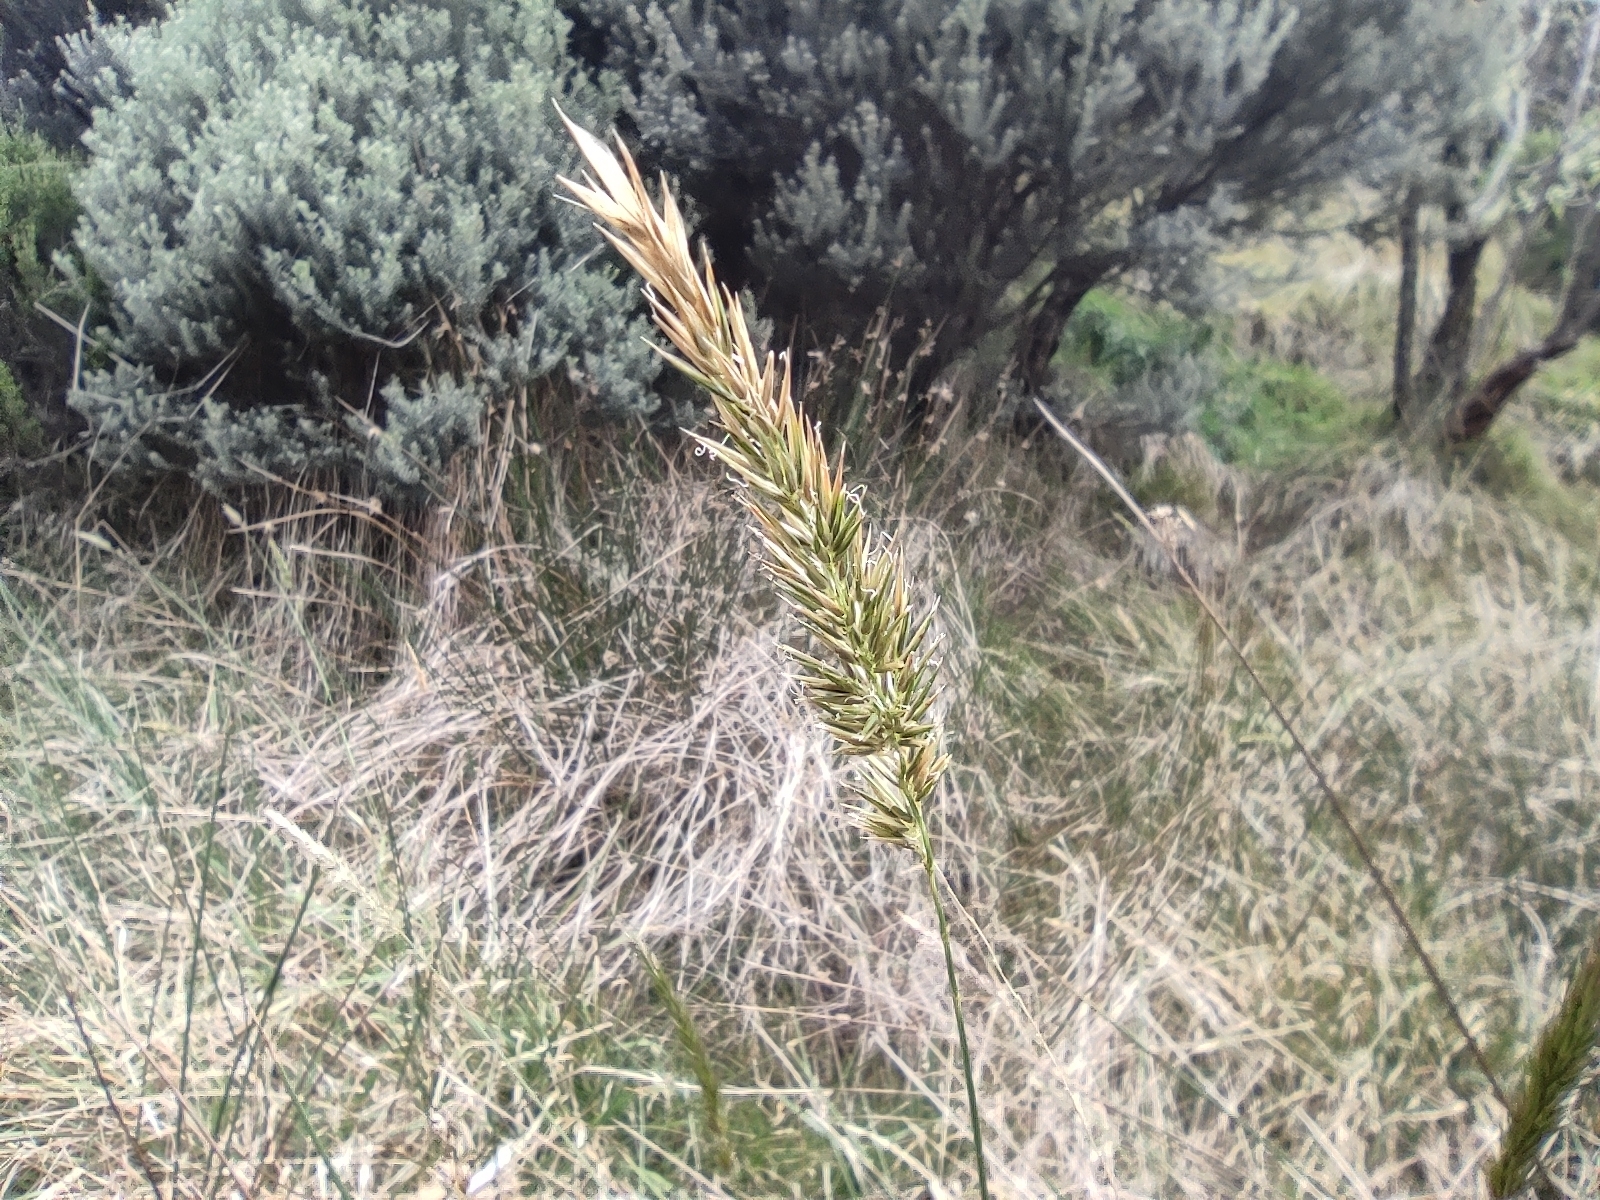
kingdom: Plantae
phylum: Tracheophyta
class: Liliopsida
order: Poales
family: Poaceae
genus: Anthoxanthum
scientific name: Anthoxanthum odoratum
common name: Sweet vernalgrass
